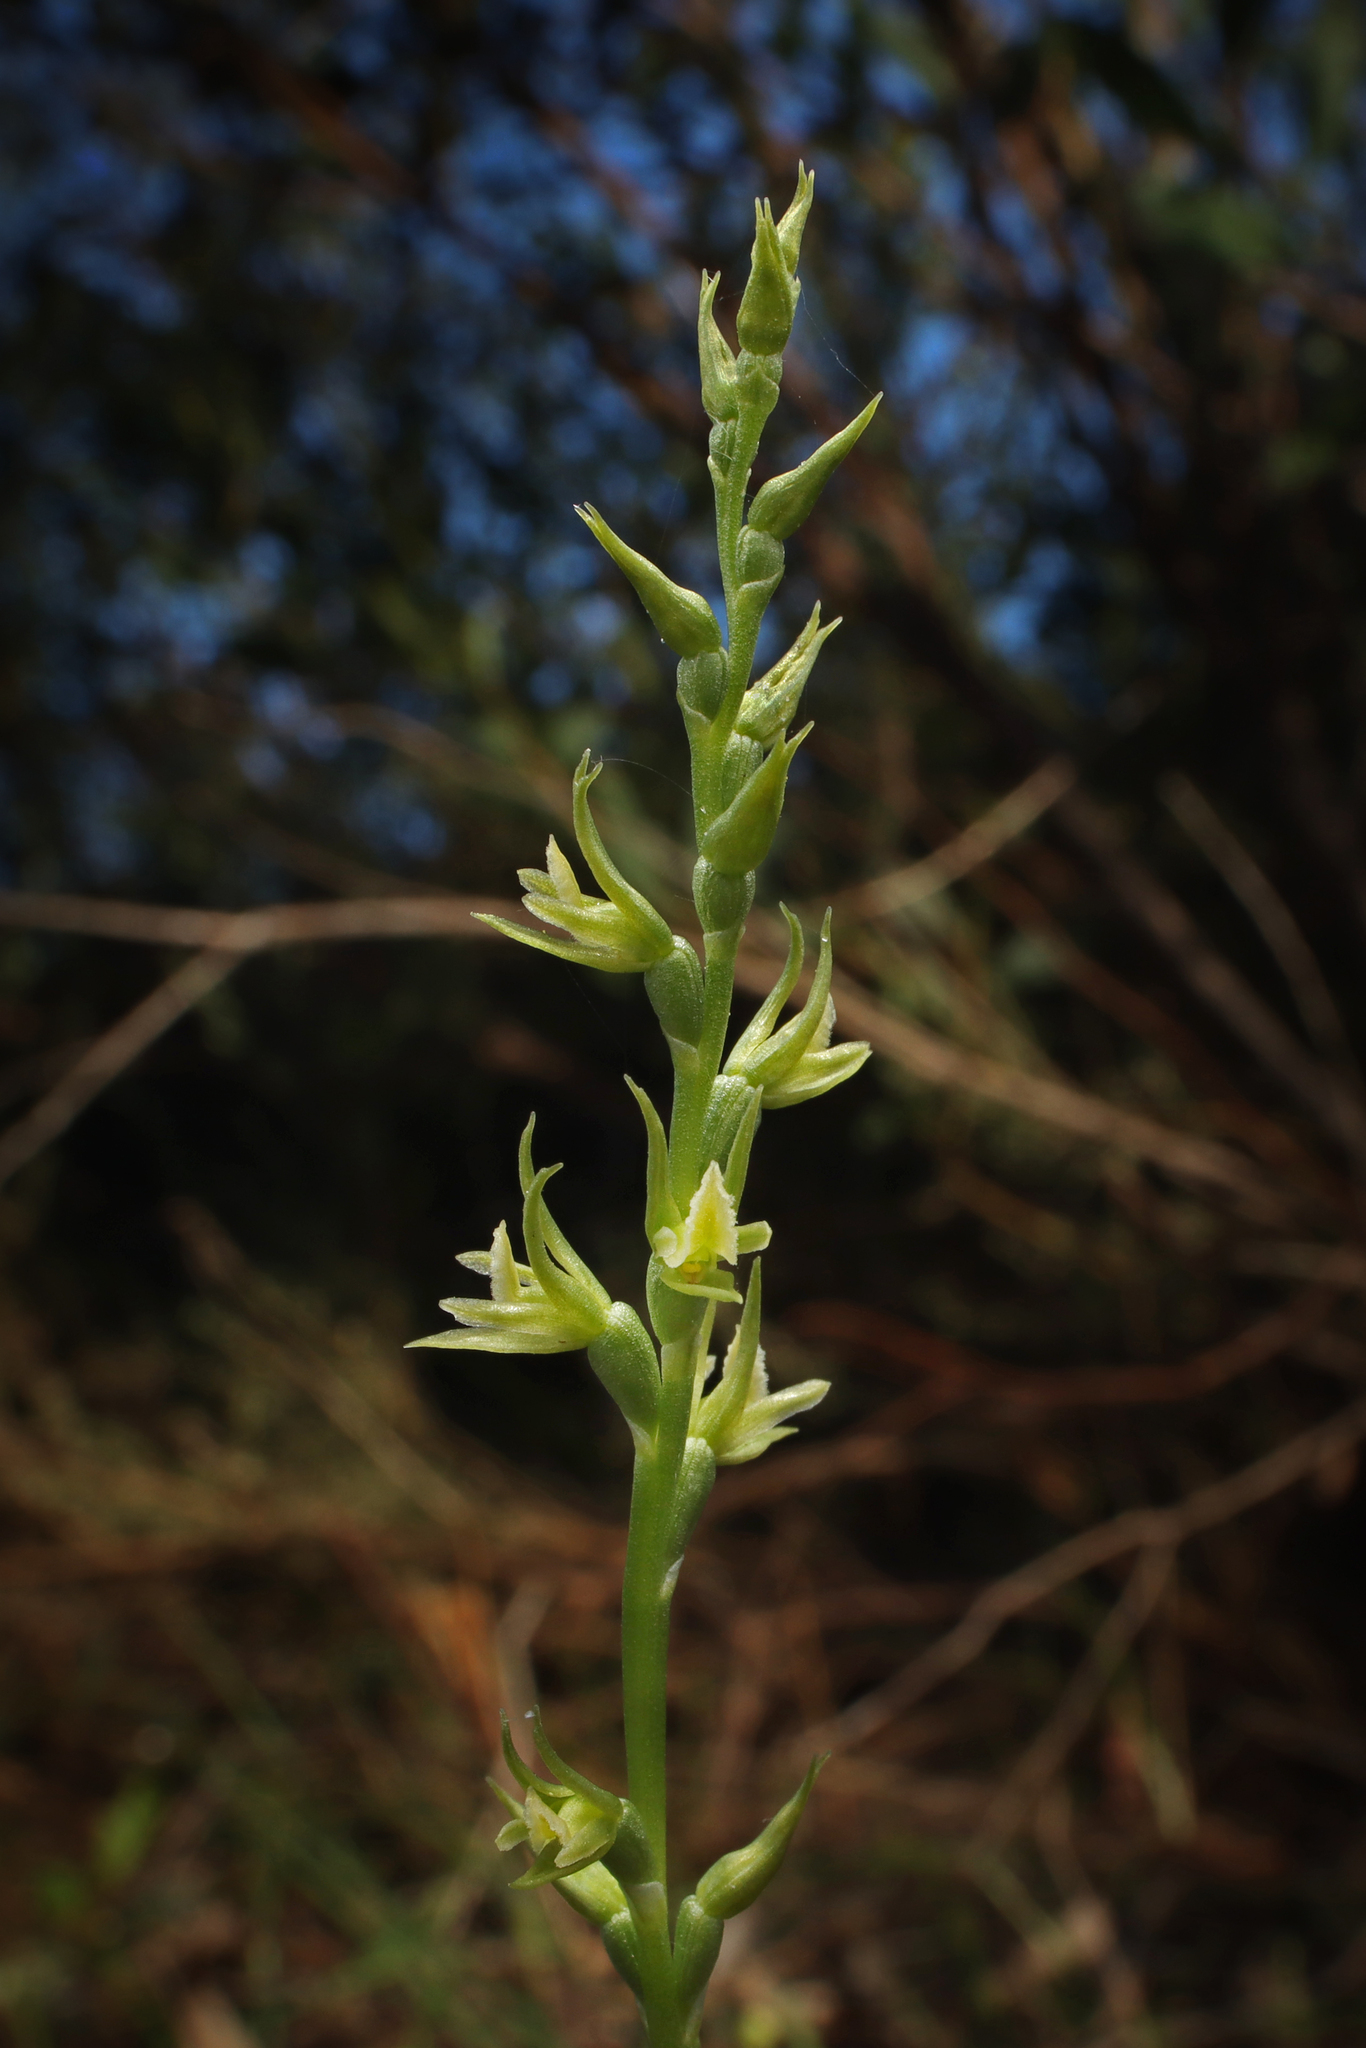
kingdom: Plantae
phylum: Tracheophyta
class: Liliopsida
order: Asparagales
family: Orchidaceae
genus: Prasophyllum
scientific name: Prasophyllum pallidum
